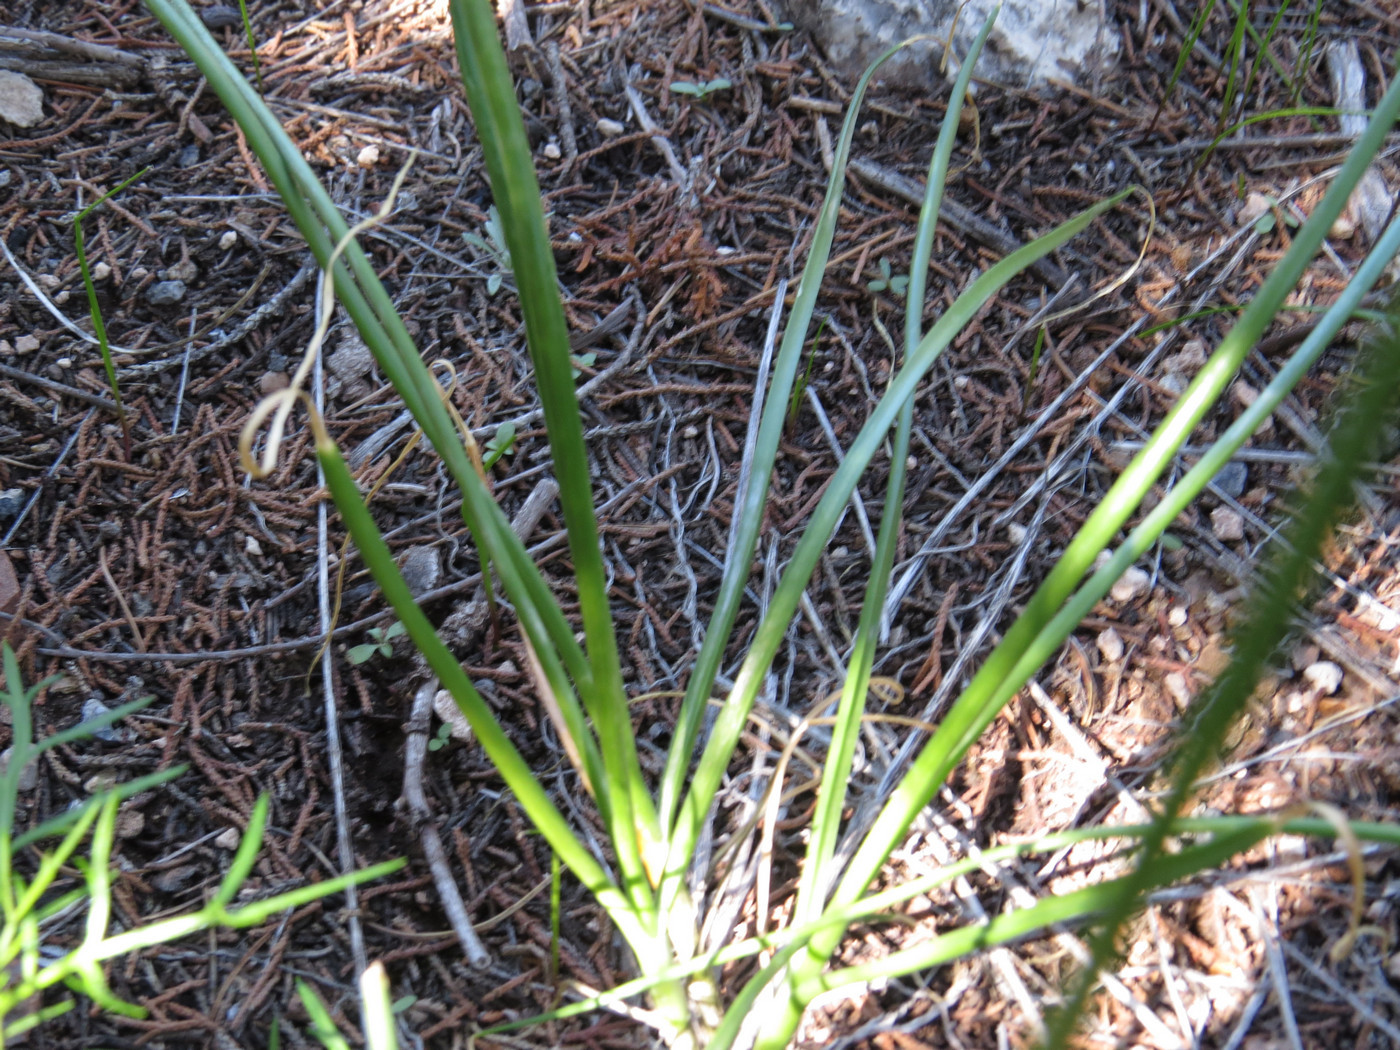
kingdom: Plantae
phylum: Tracheophyta
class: Liliopsida
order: Asparagales
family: Amaryllidaceae
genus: Allium
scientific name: Allium geyeri
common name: Geyer's onion
